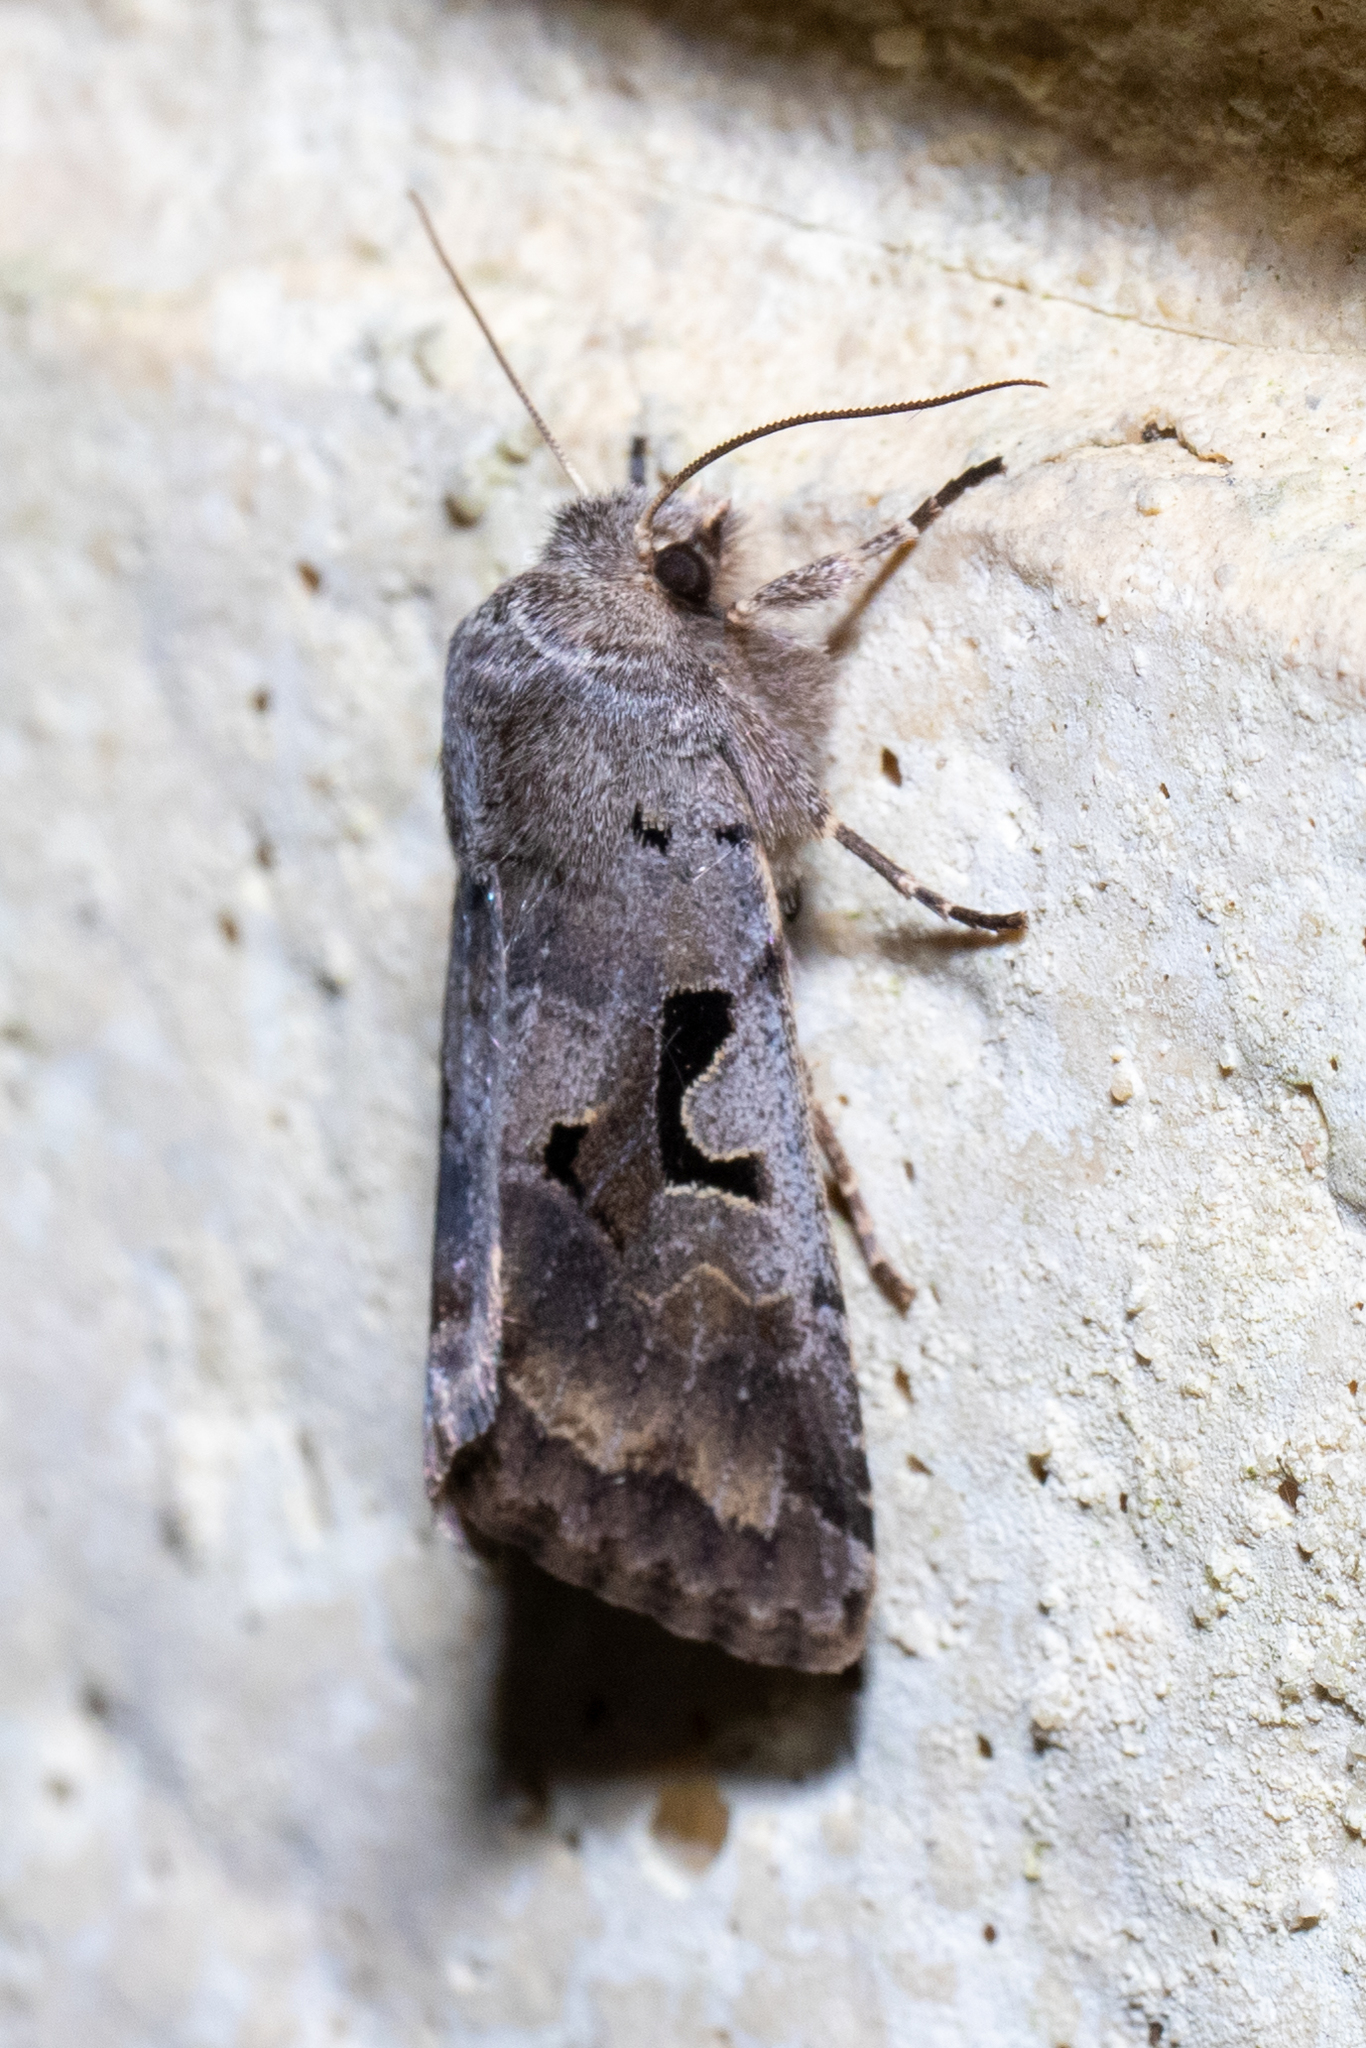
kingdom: Animalia
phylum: Arthropoda
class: Insecta
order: Lepidoptera
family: Noctuidae
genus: Orthosia
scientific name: Orthosia gothica
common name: Hebrew character
